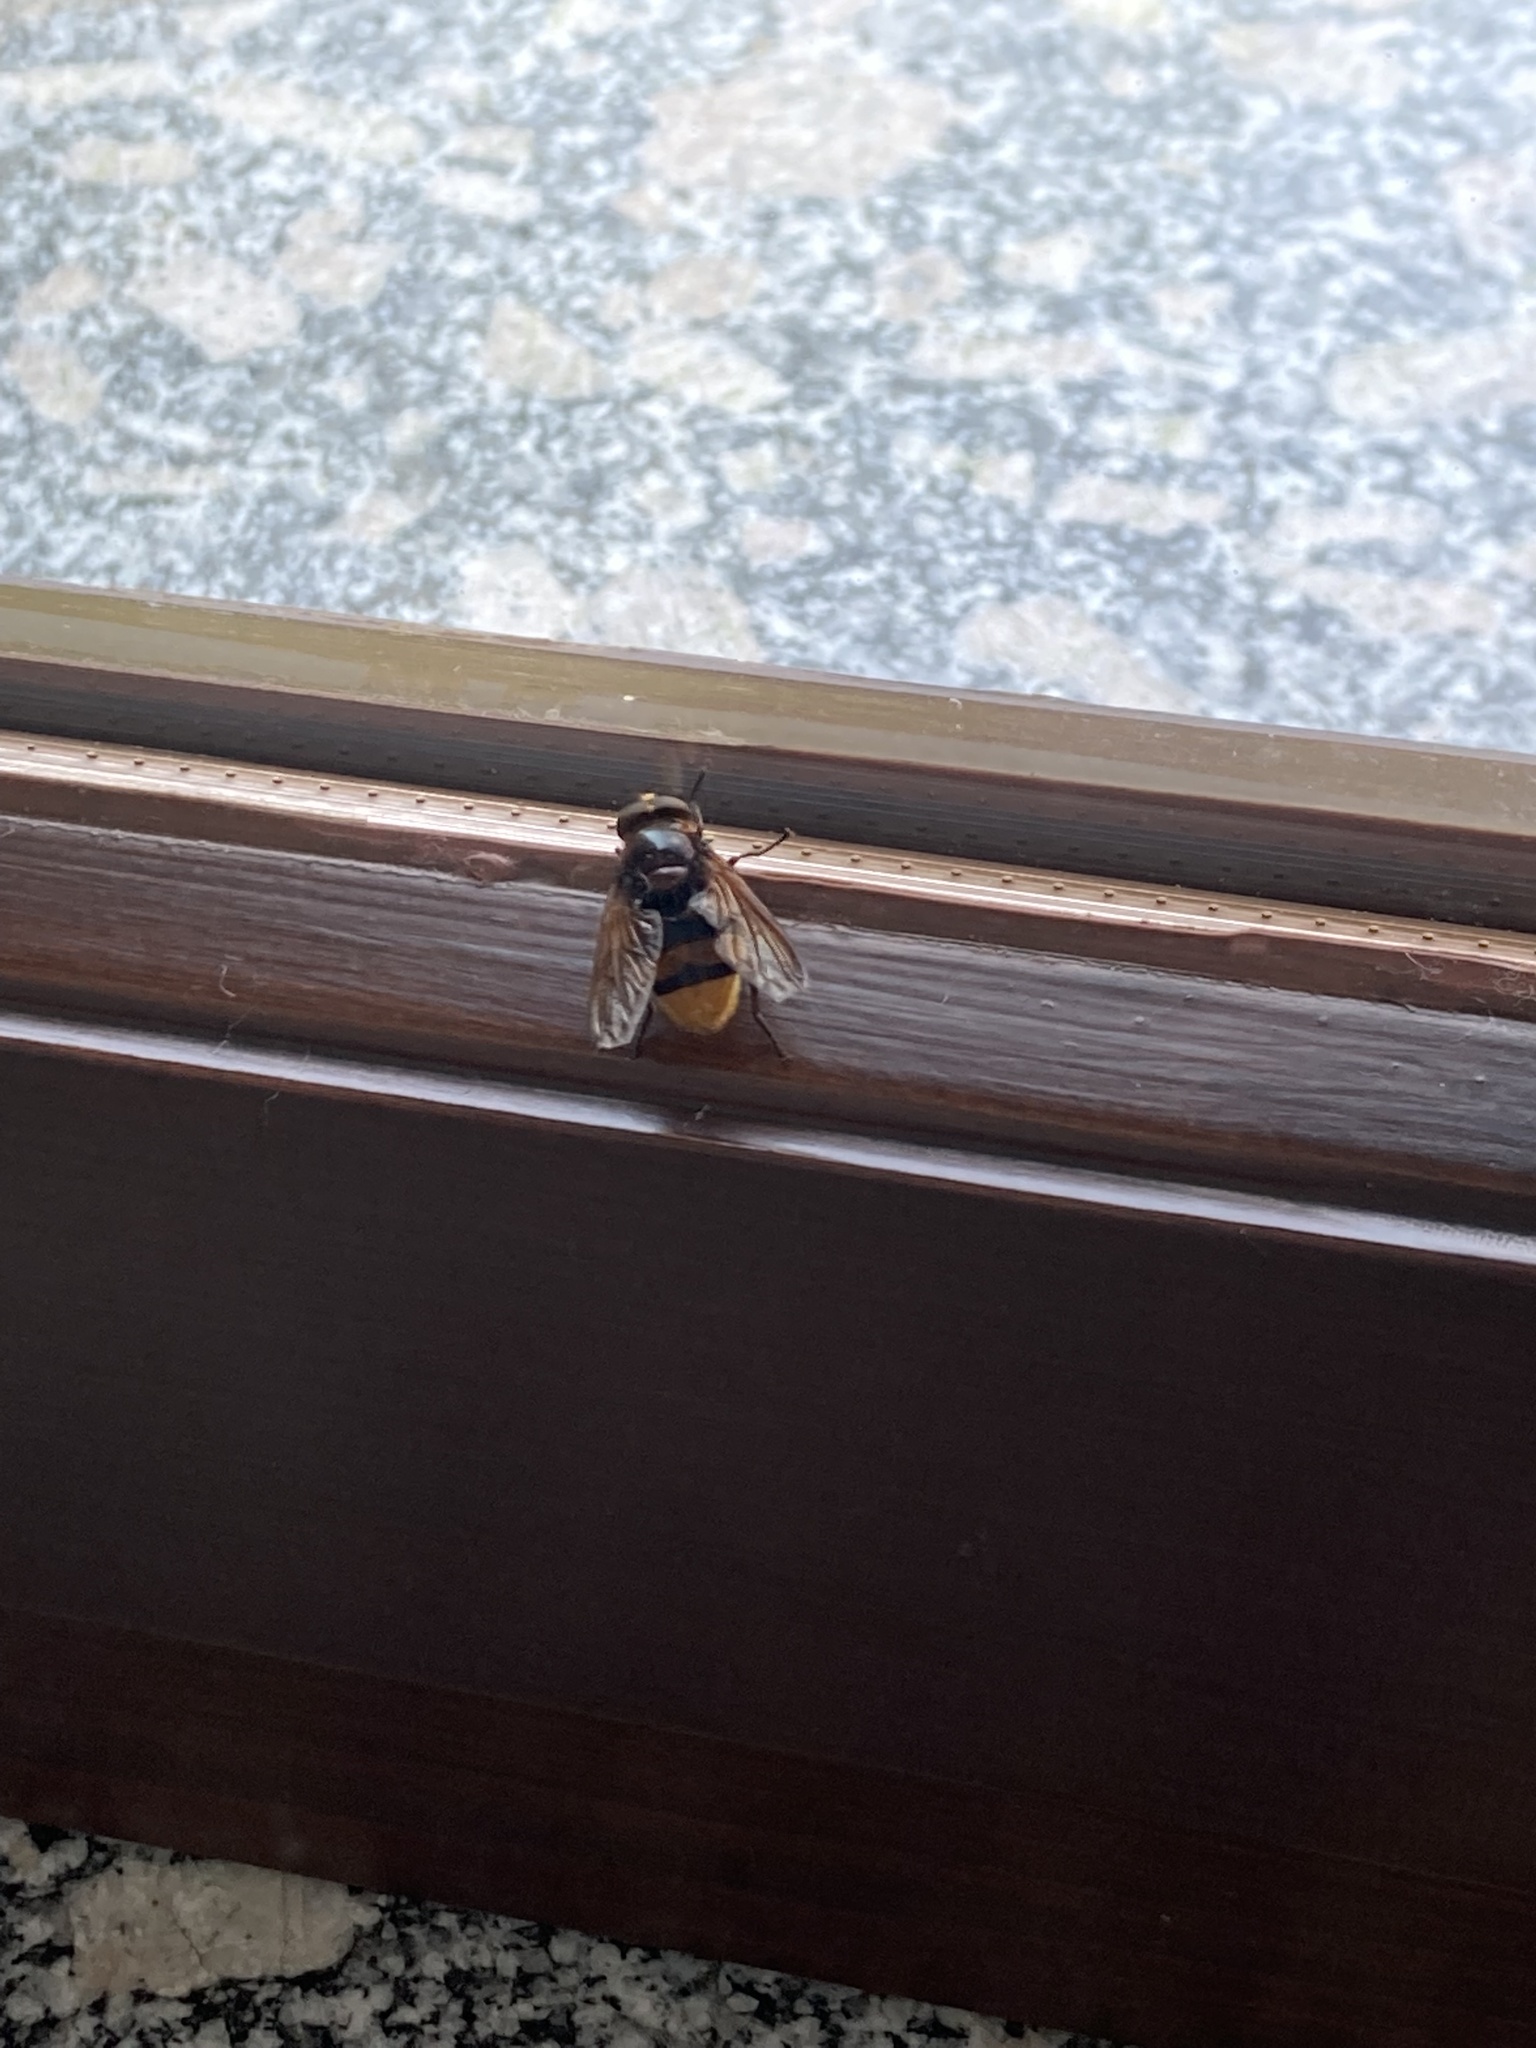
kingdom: Animalia
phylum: Arthropoda
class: Insecta
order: Diptera
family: Syrphidae
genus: Volucella
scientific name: Volucella zonaria
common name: Hornet hoverfly
